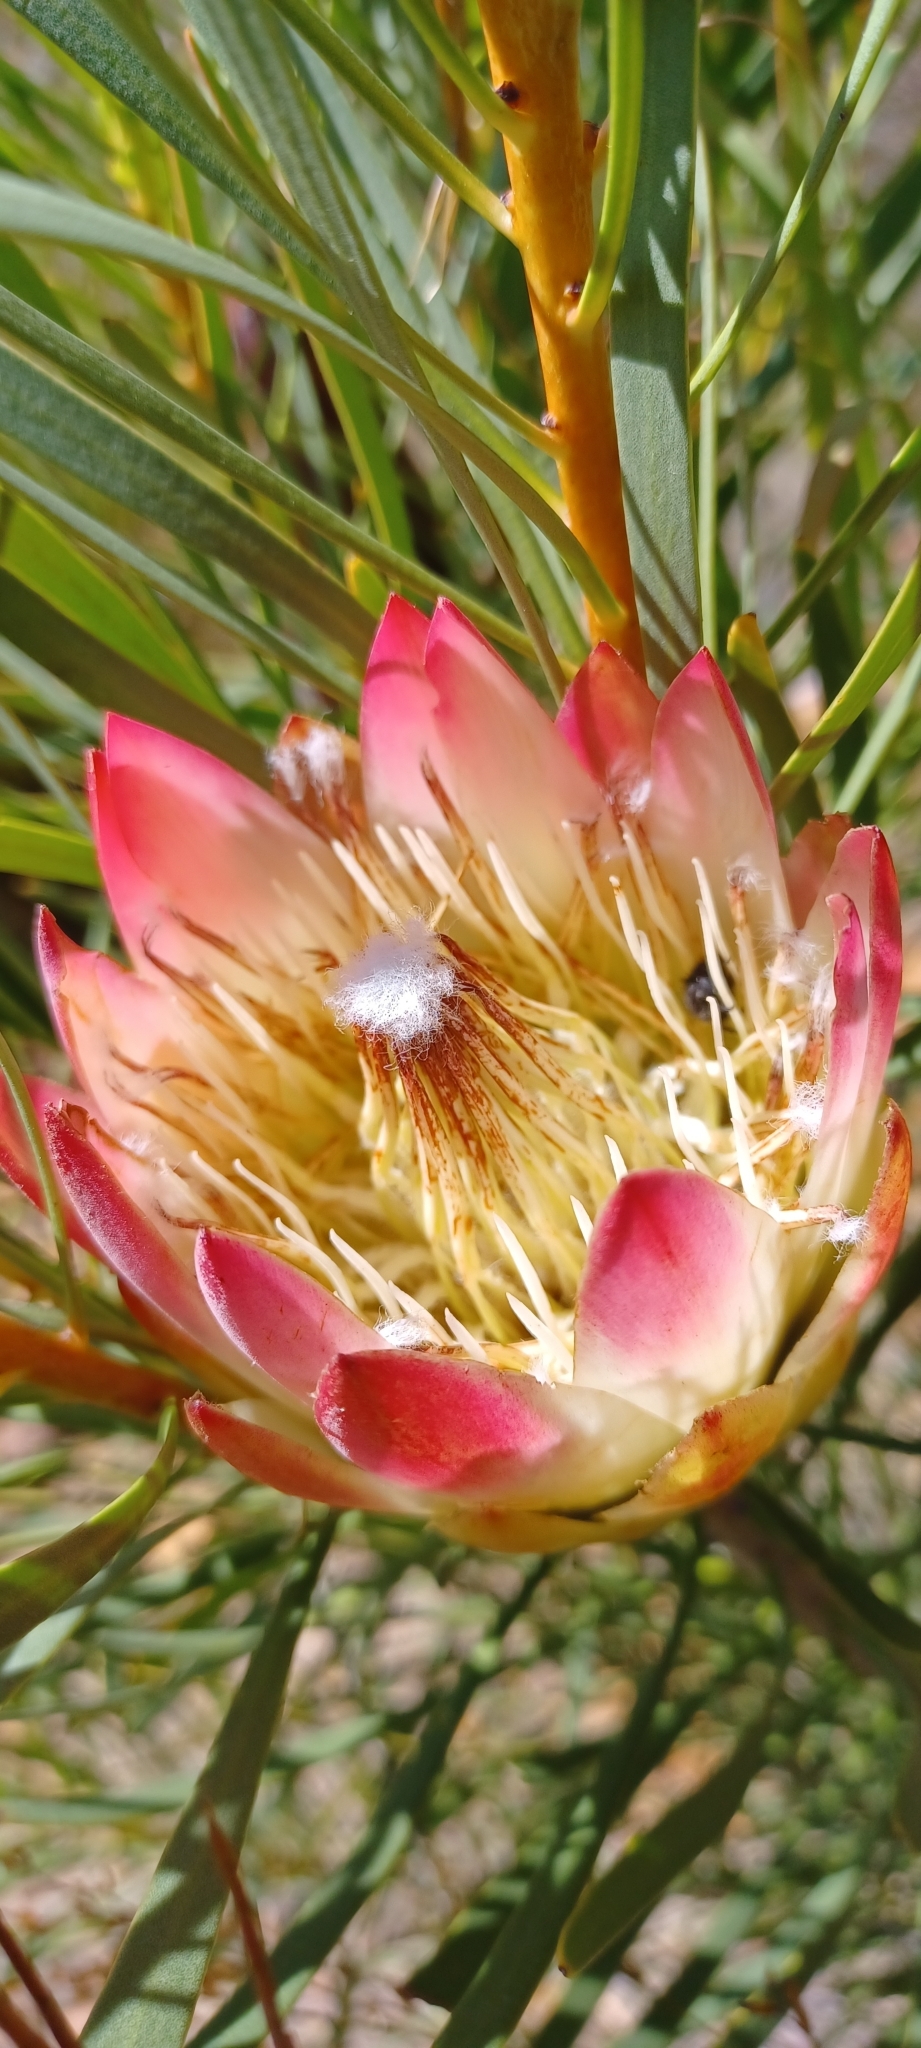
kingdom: Plantae
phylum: Tracheophyta
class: Magnoliopsida
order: Proteales
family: Proteaceae
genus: Protea
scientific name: Protea repens
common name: Sugarbush
